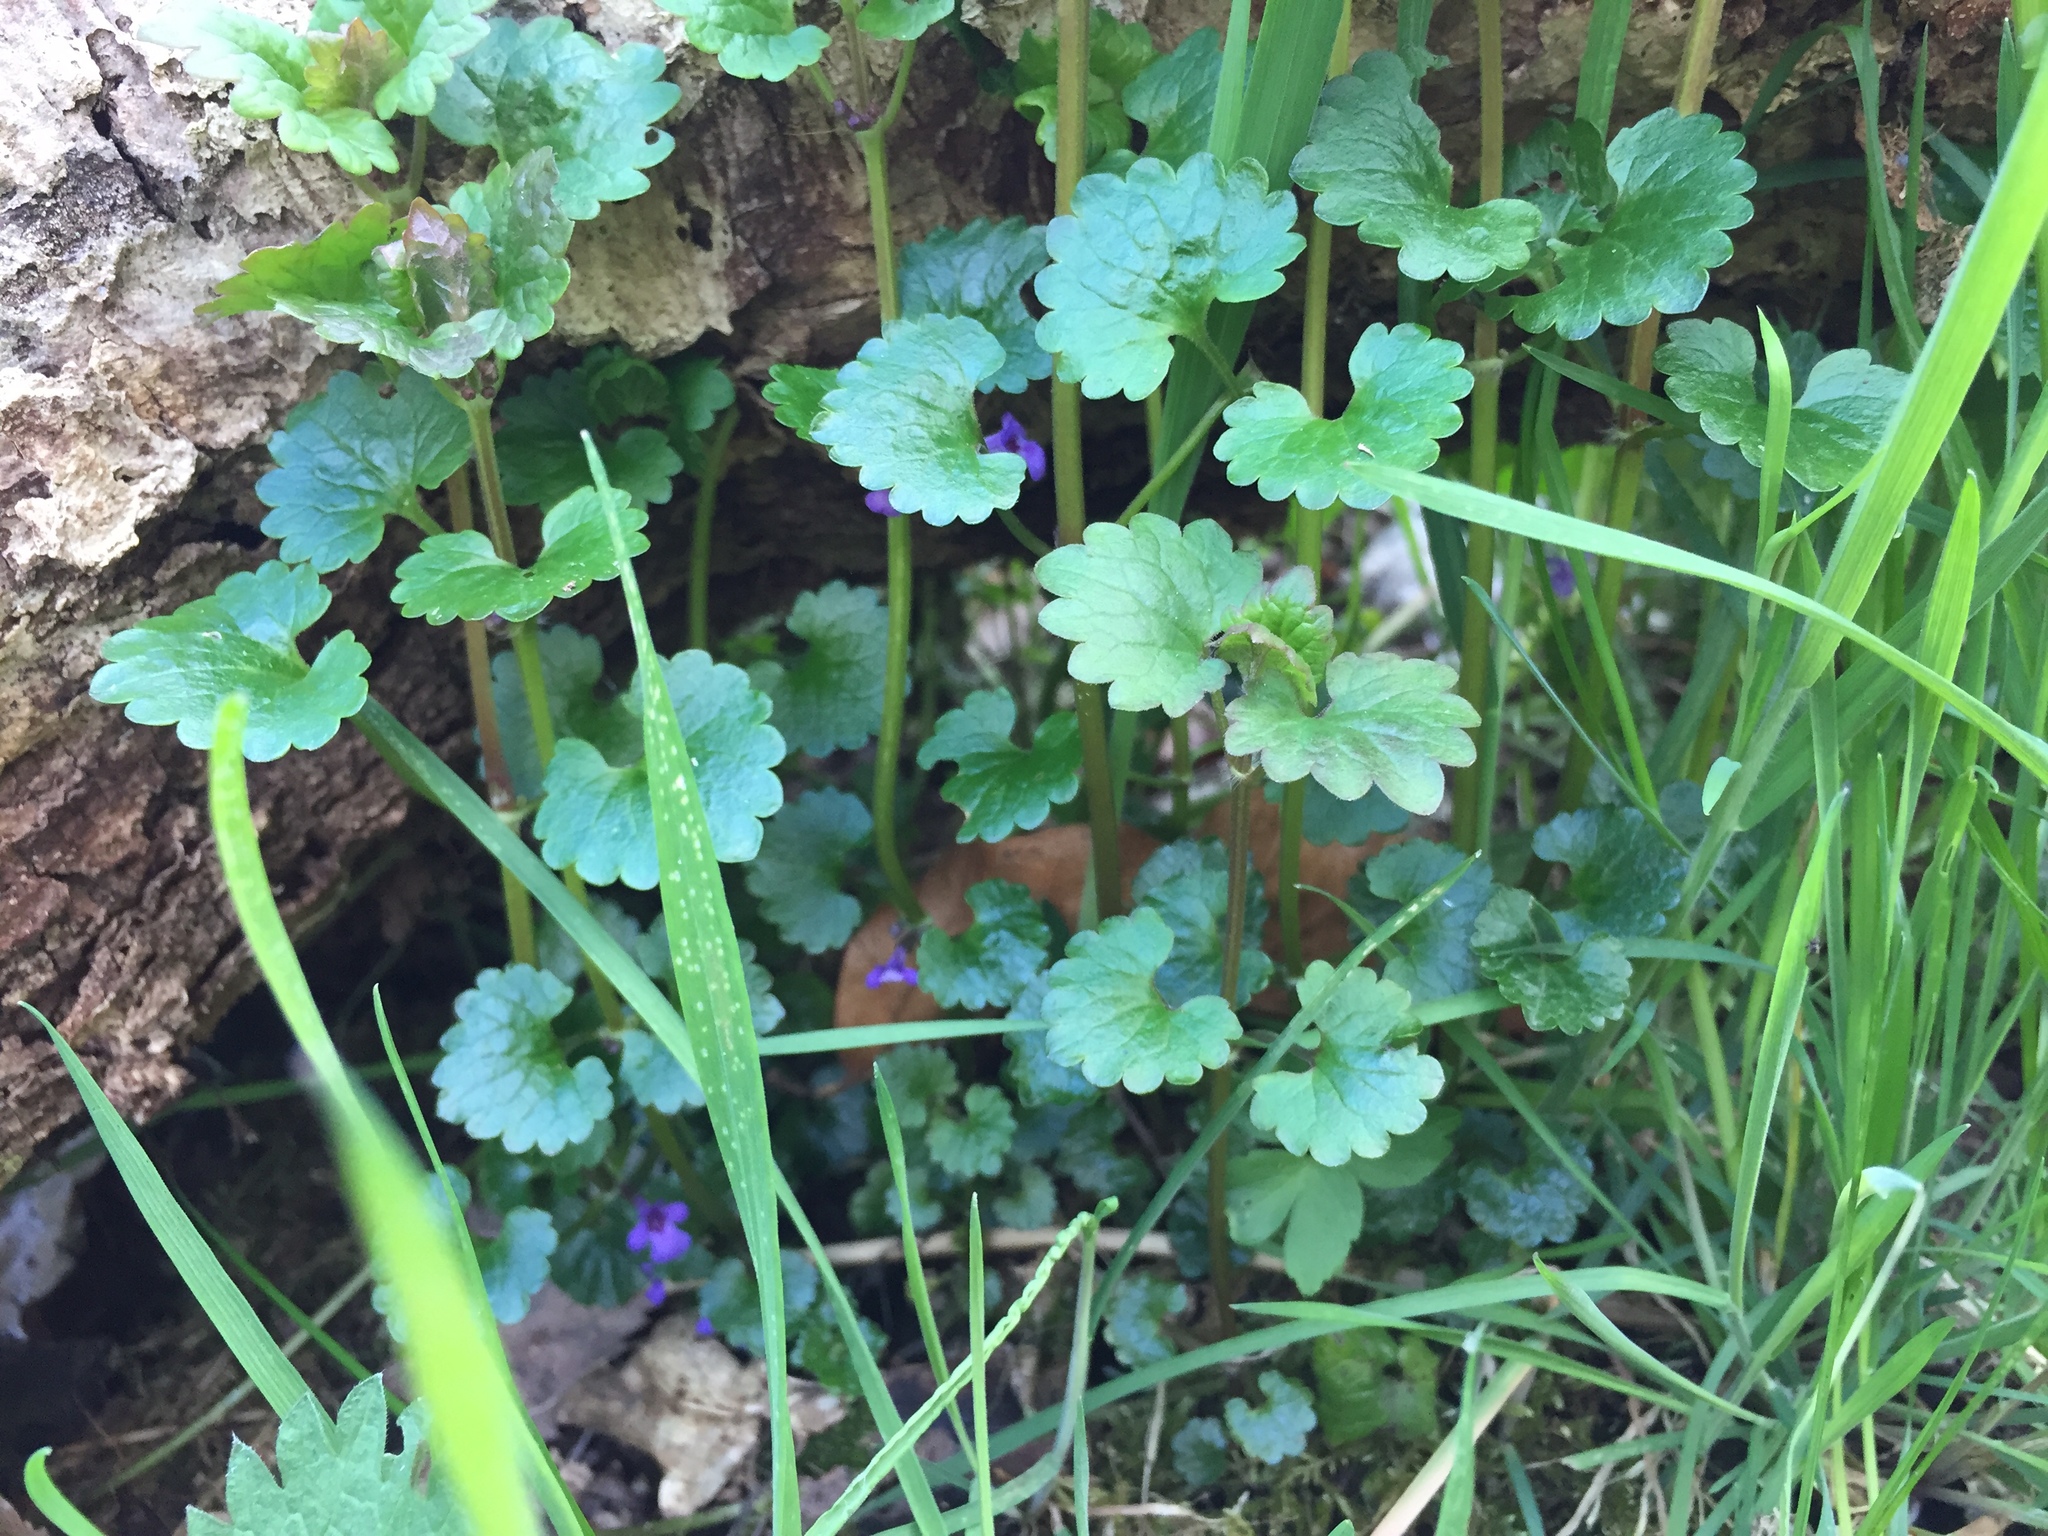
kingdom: Plantae
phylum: Tracheophyta
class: Magnoliopsida
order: Lamiales
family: Lamiaceae
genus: Glechoma
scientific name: Glechoma hederacea
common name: Ground ivy
